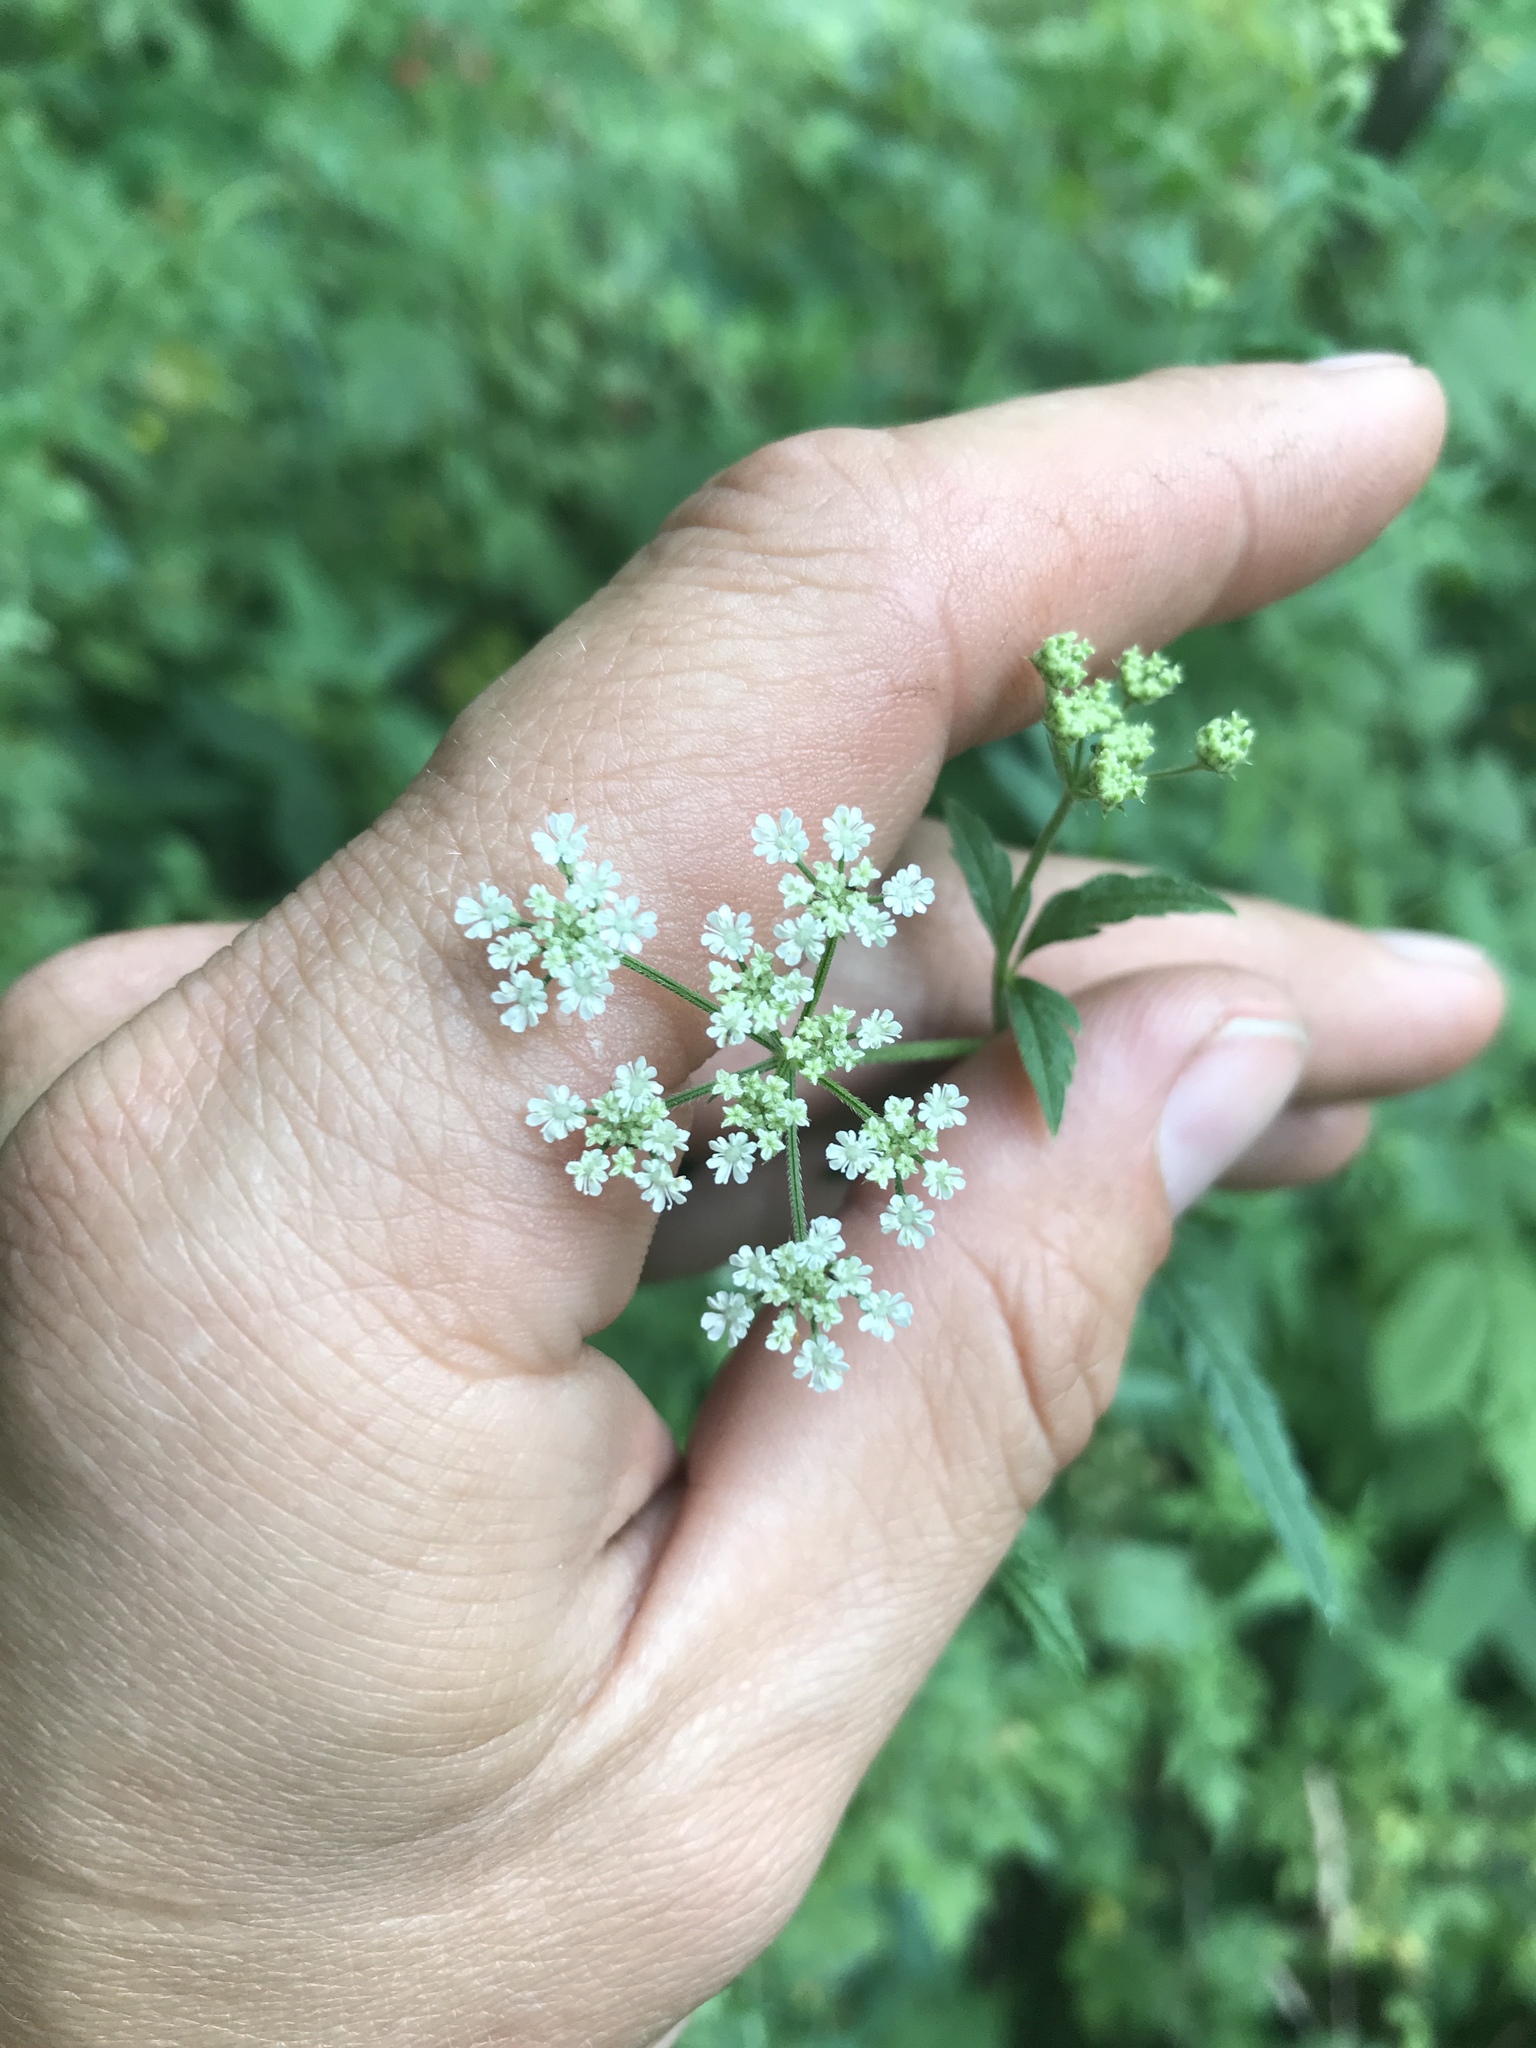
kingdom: Plantae
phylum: Tracheophyta
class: Magnoliopsida
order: Apiales
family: Apiaceae
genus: Torilis
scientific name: Torilis japonica
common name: Upright hedge-parsley
